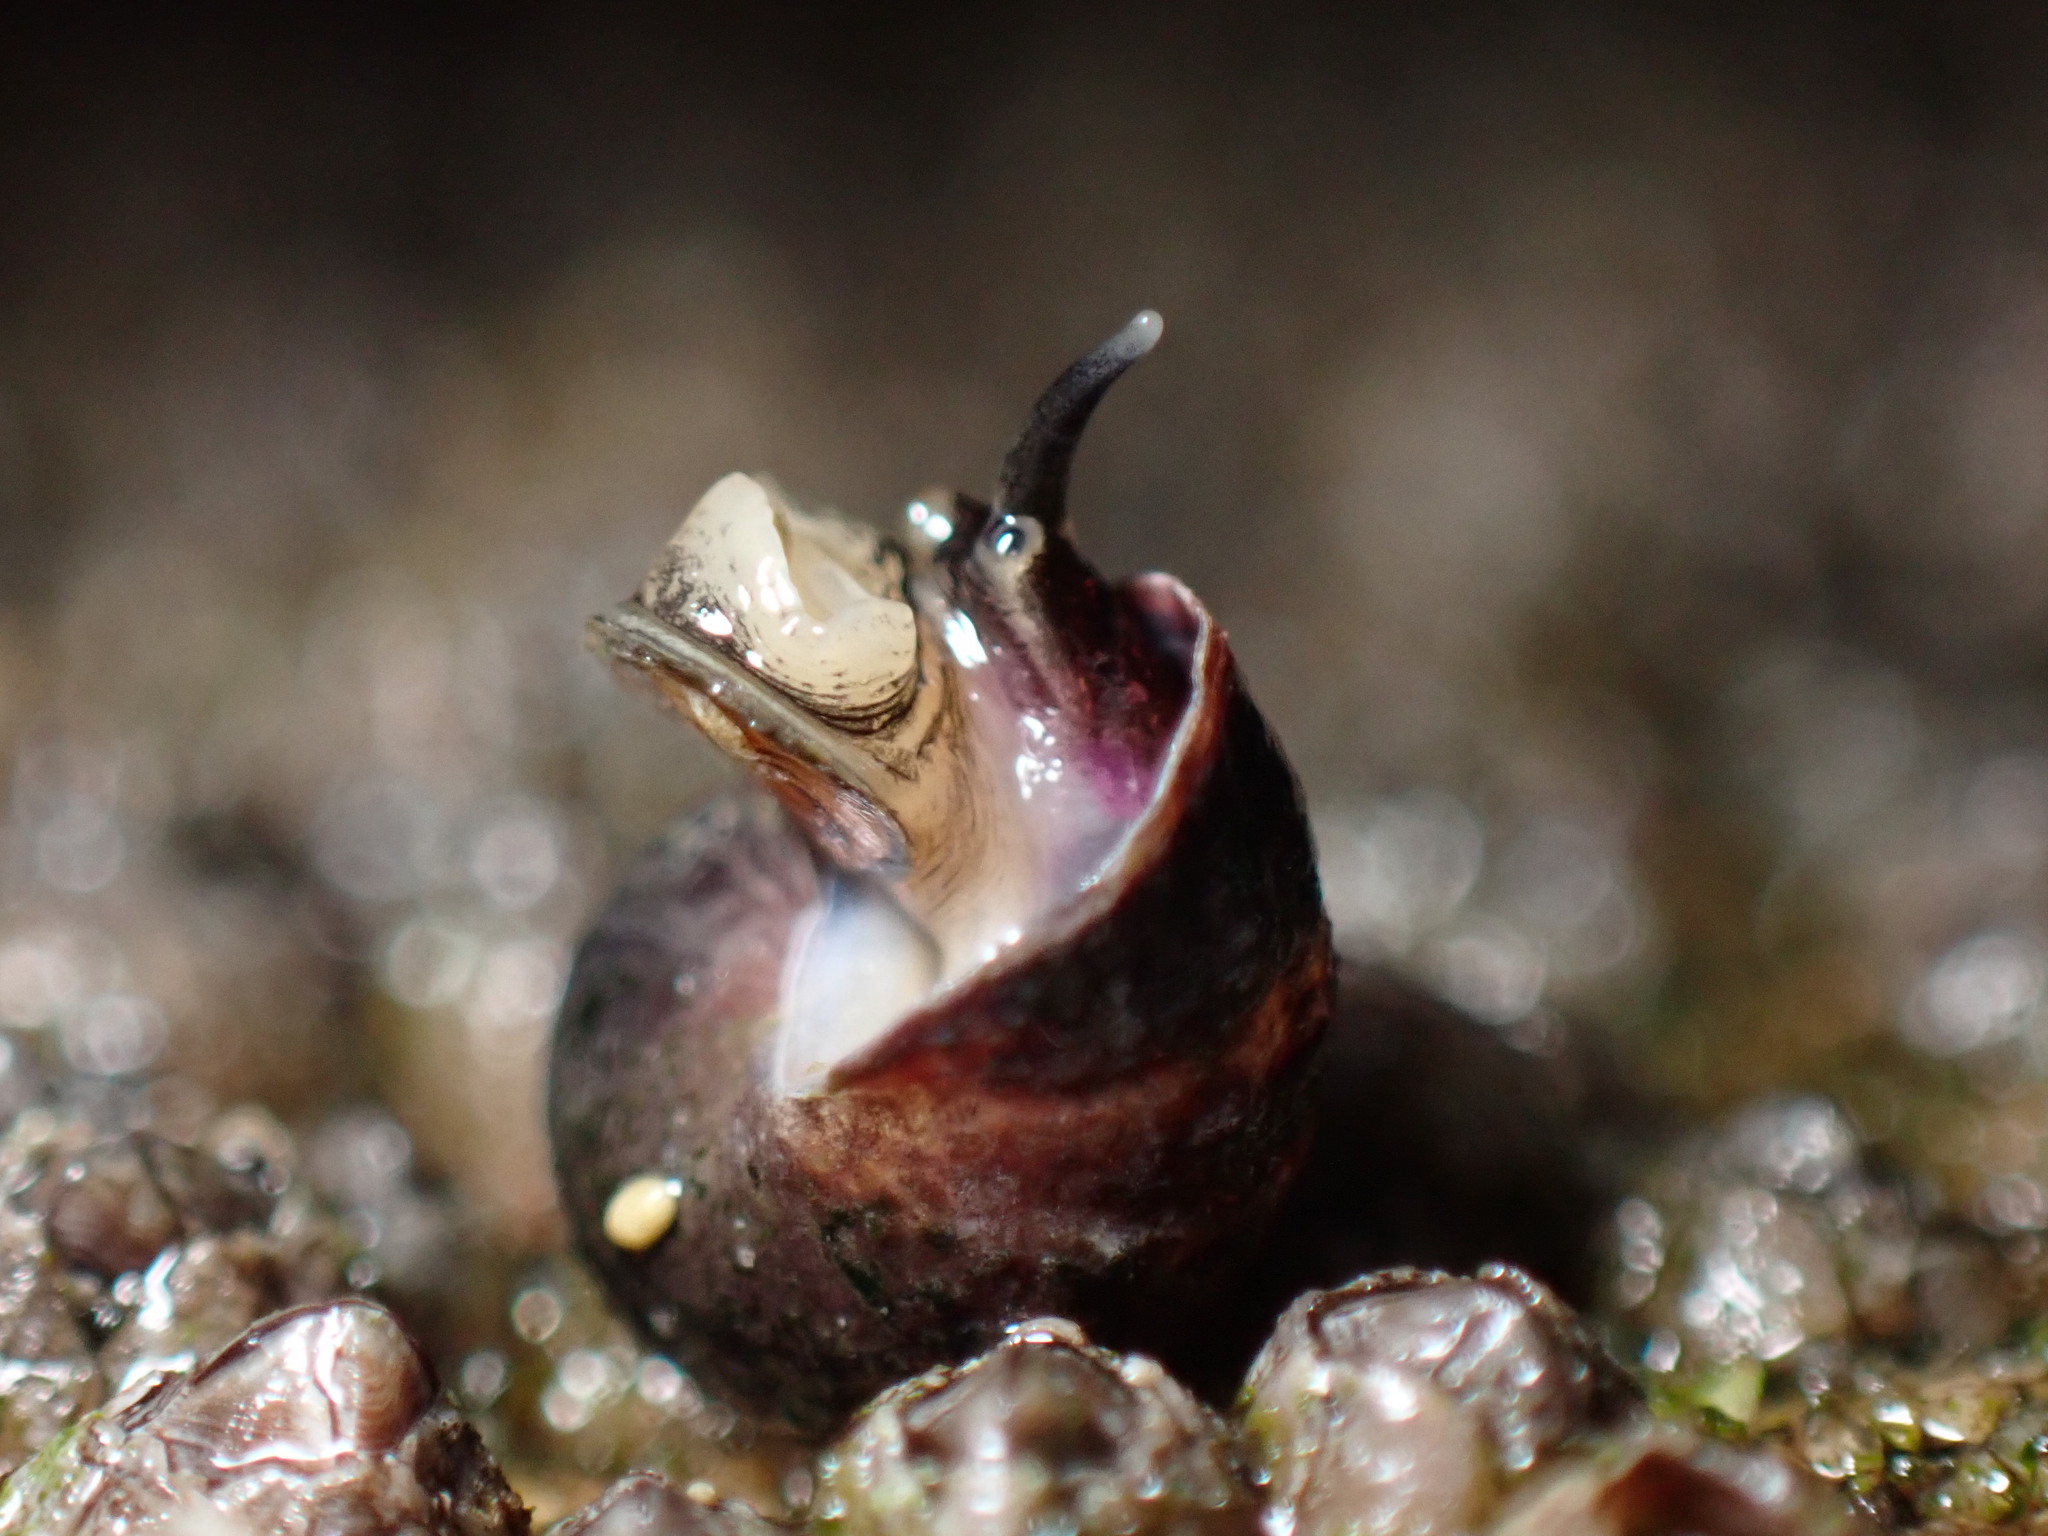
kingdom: Animalia
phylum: Mollusca
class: Gastropoda
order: Littorinimorpha
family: Littorinidae
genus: Littorina
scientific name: Littorina sitkana
